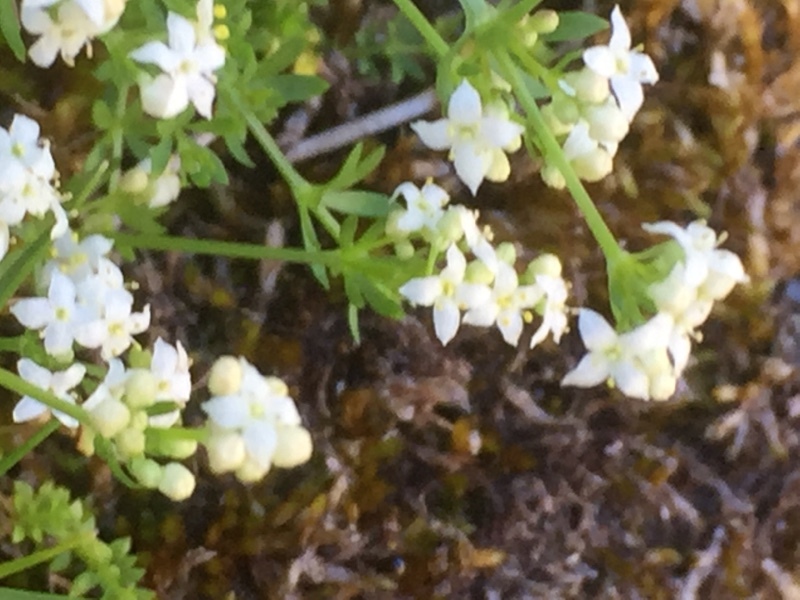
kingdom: Plantae
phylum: Tracheophyta
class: Magnoliopsida
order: Gentianales
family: Rubiaceae
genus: Galium
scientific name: Galium saxatile
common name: Heath bedstraw
